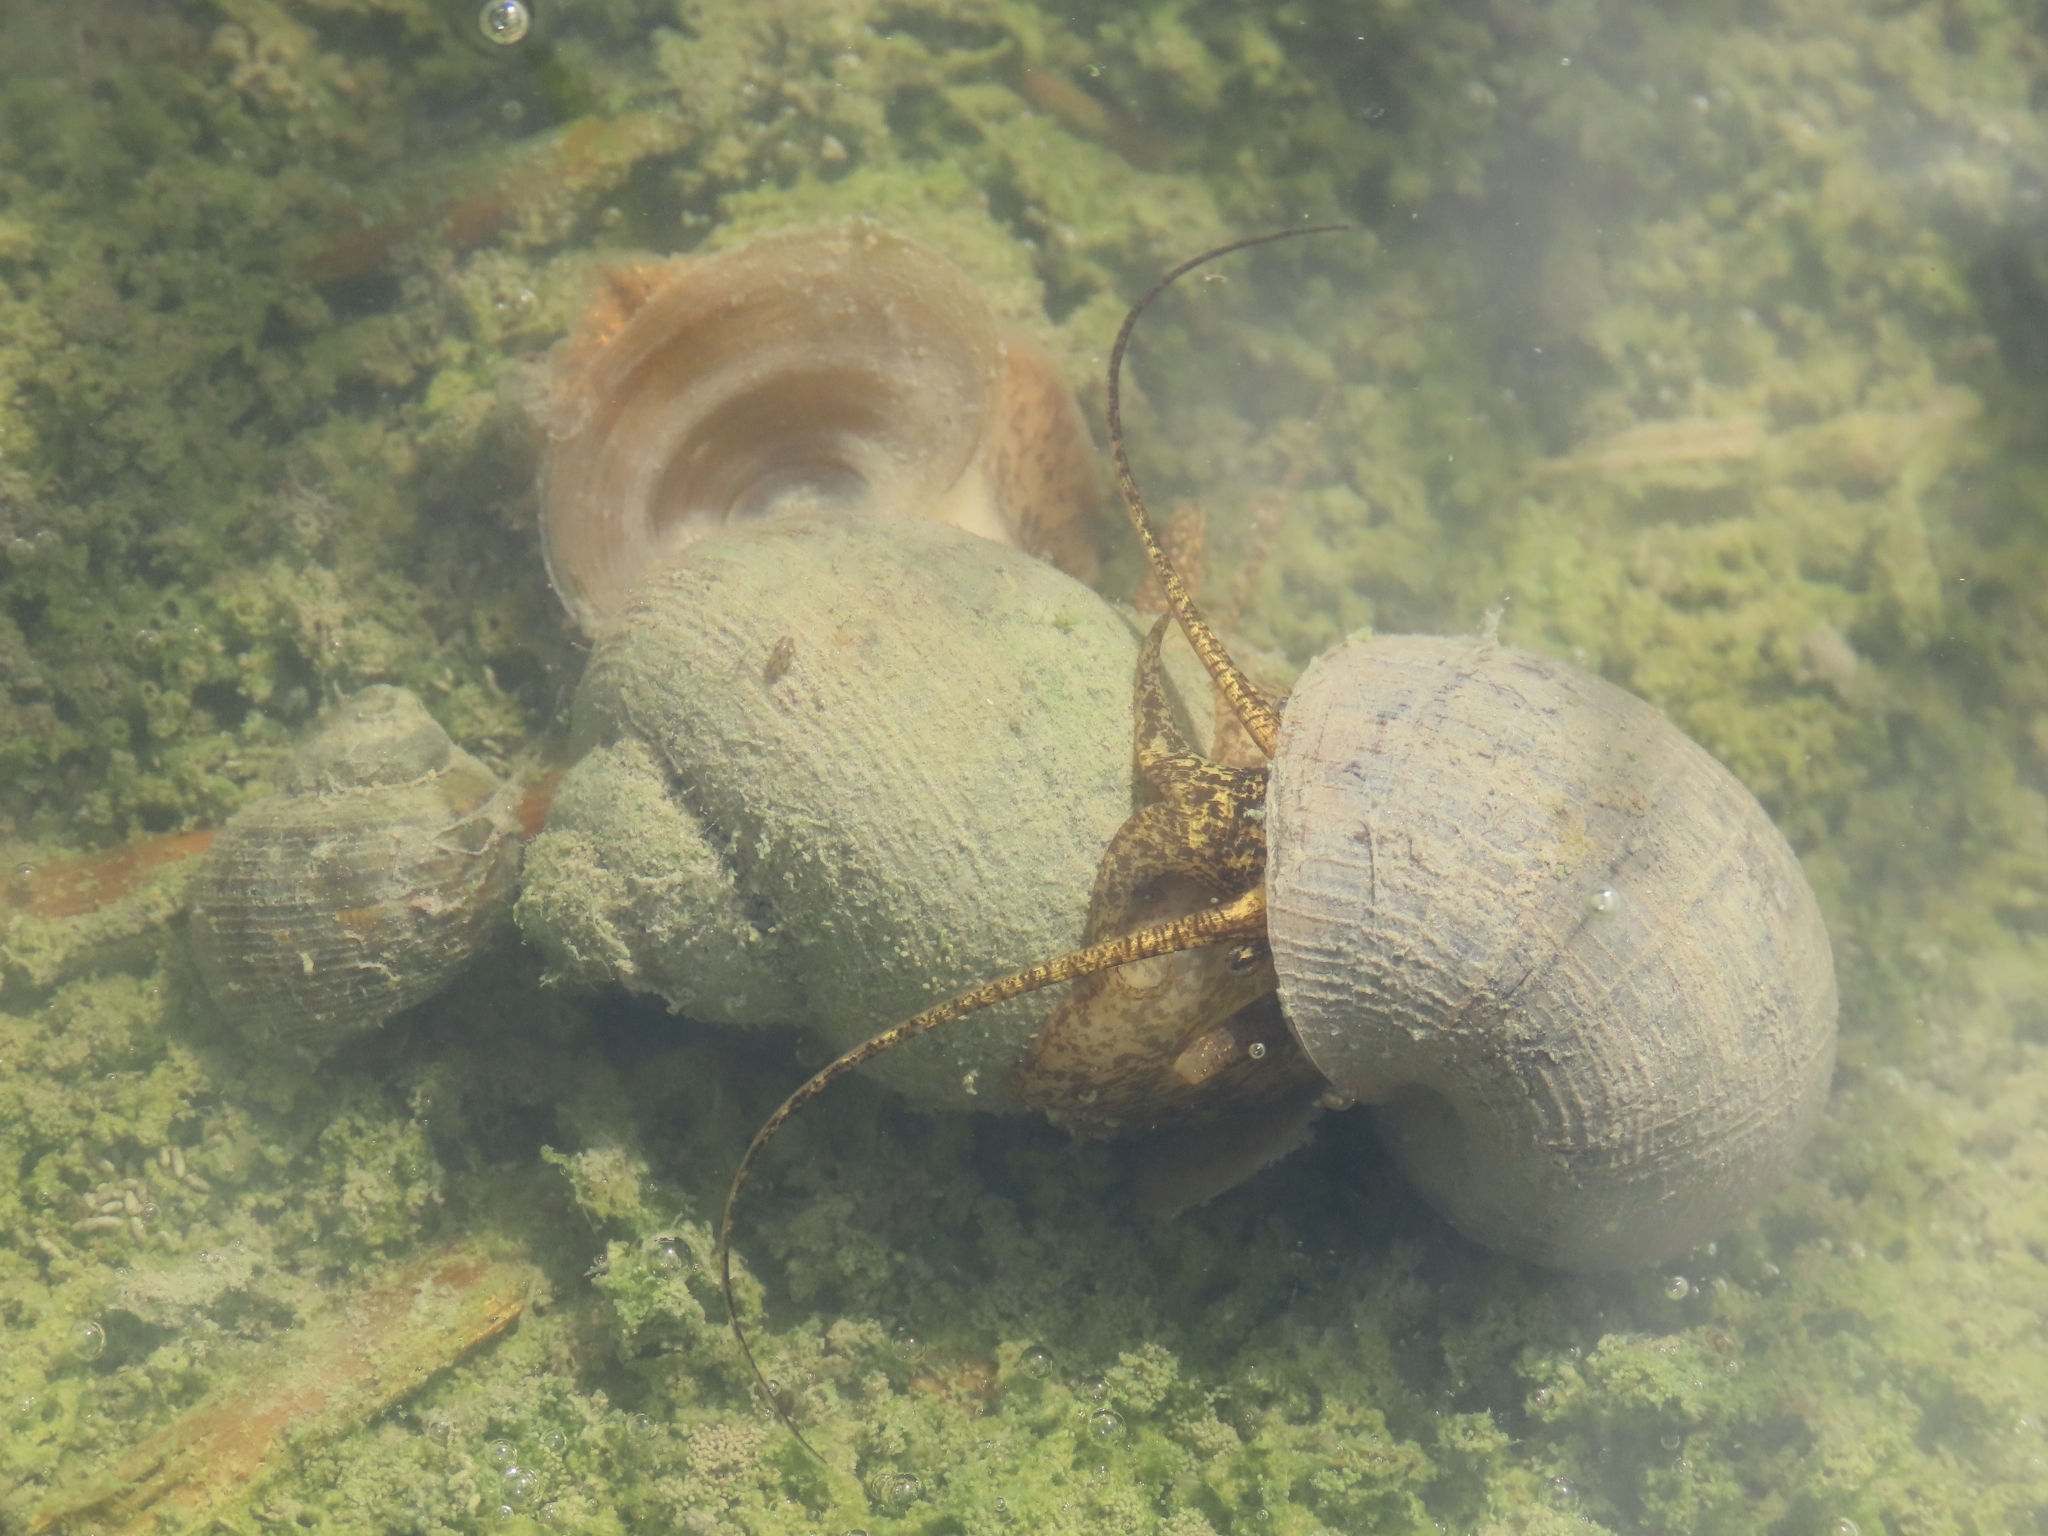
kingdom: Animalia
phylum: Mollusca
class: Gastropoda
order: Architaenioglossa
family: Ampullariidae
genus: Pomacea
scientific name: Pomacea canaliculata
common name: Channeled applesnail
